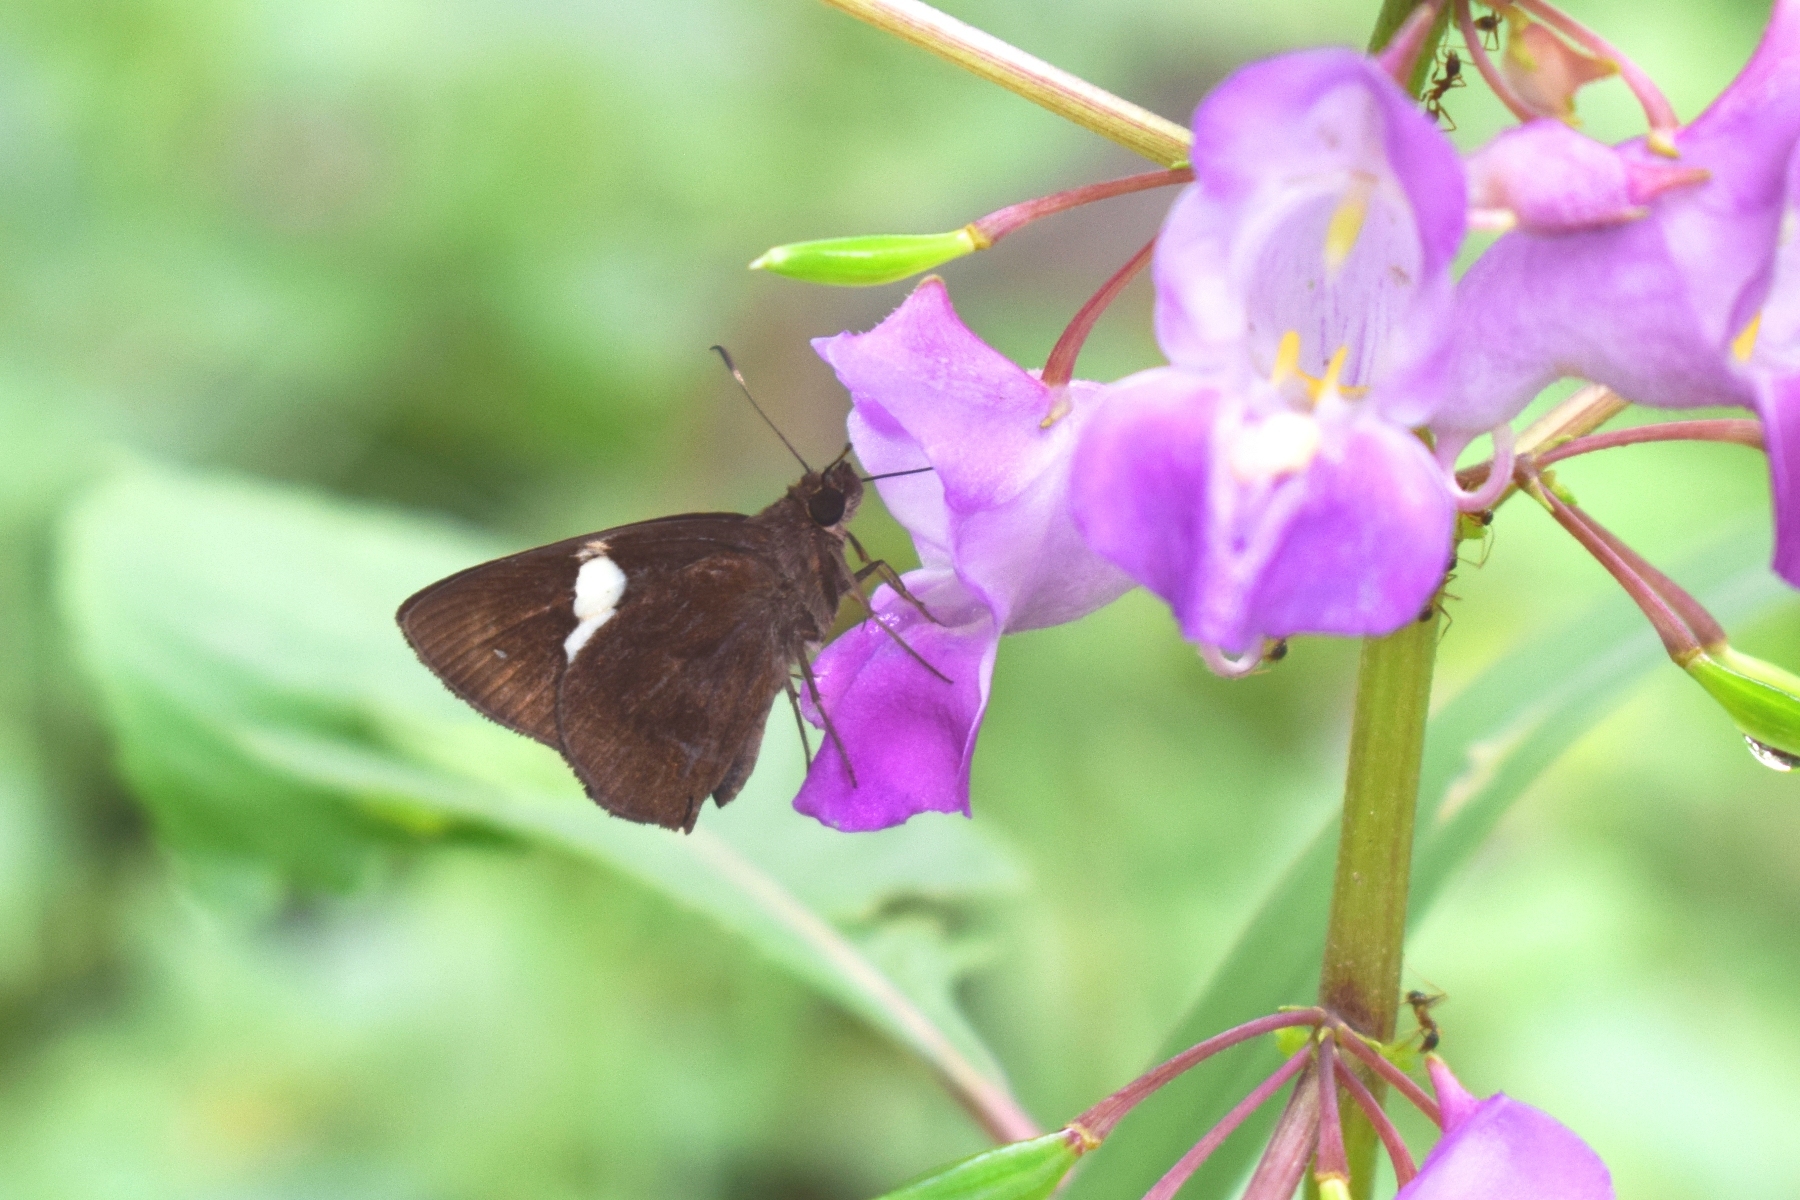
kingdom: Animalia
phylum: Arthropoda
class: Insecta
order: Lepidoptera
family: Hesperiidae
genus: Notocrypta
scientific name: Notocrypta paralysos
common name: Common banded demon
